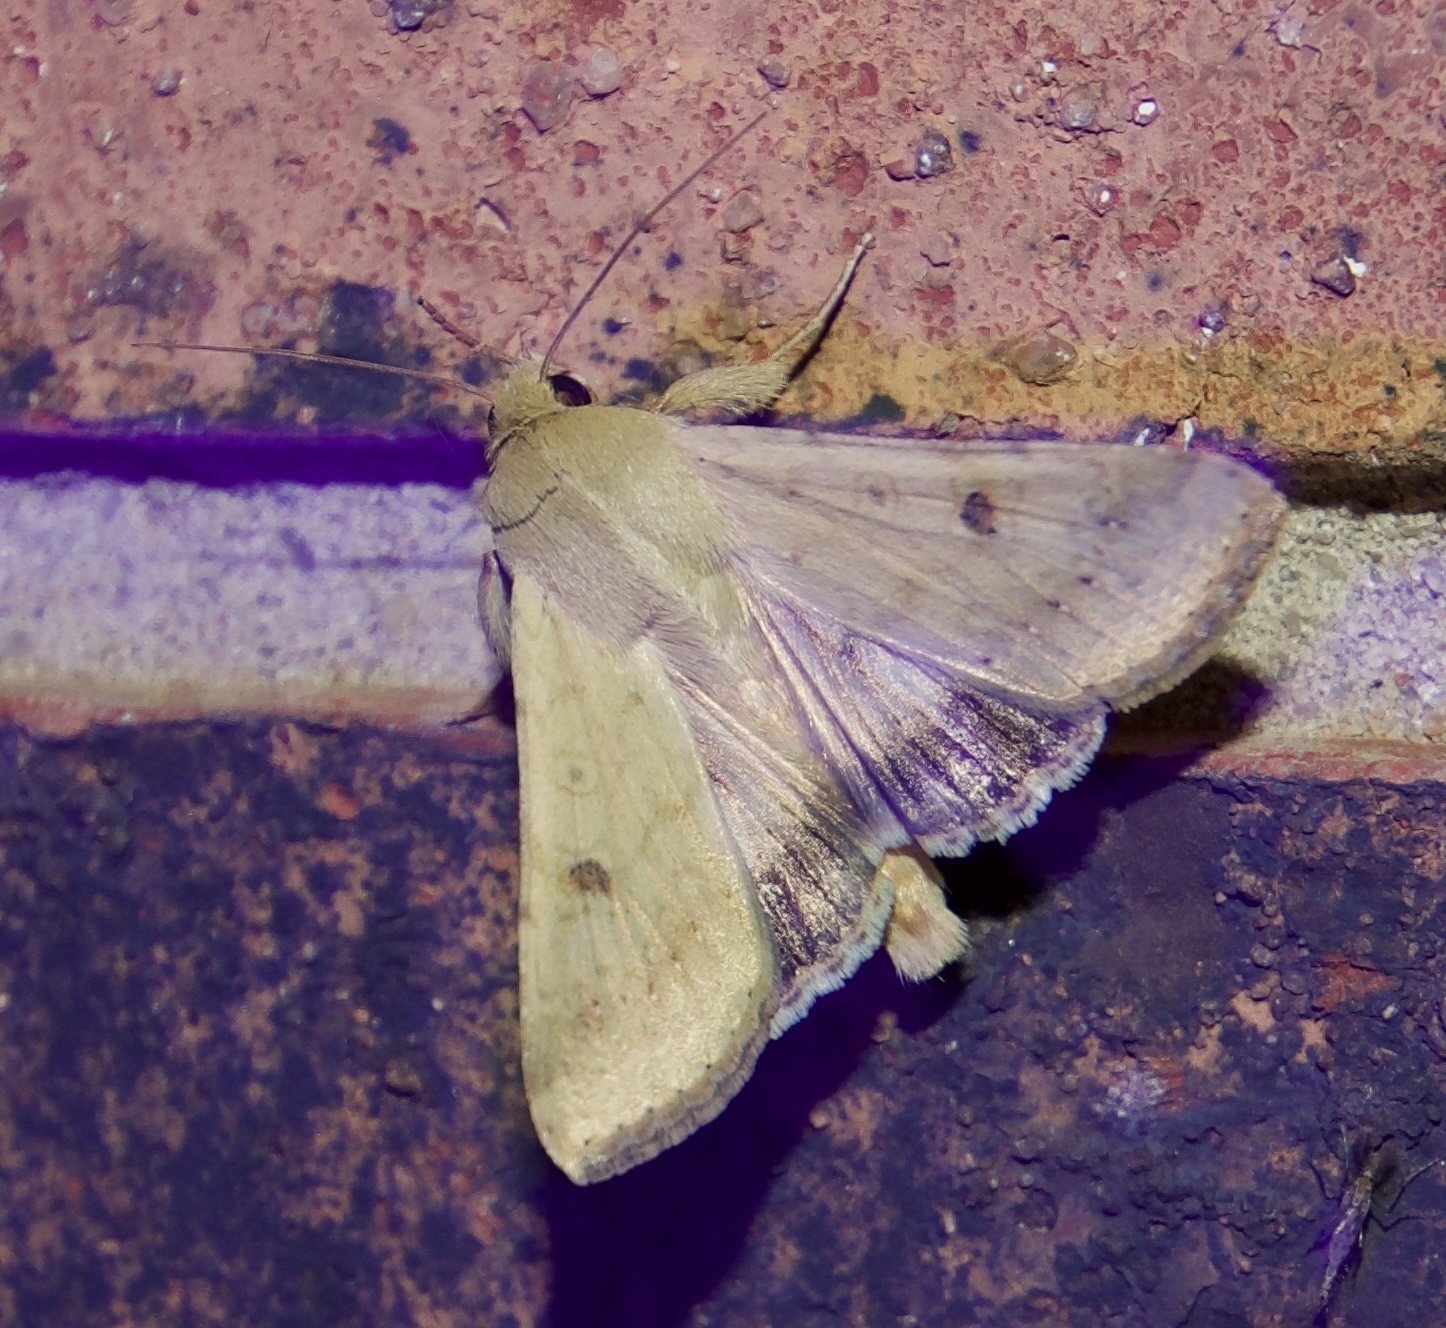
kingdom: Animalia
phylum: Arthropoda
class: Insecta
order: Lepidoptera
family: Noctuidae
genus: Helicoverpa
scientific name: Helicoverpa zea
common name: Bollworm
